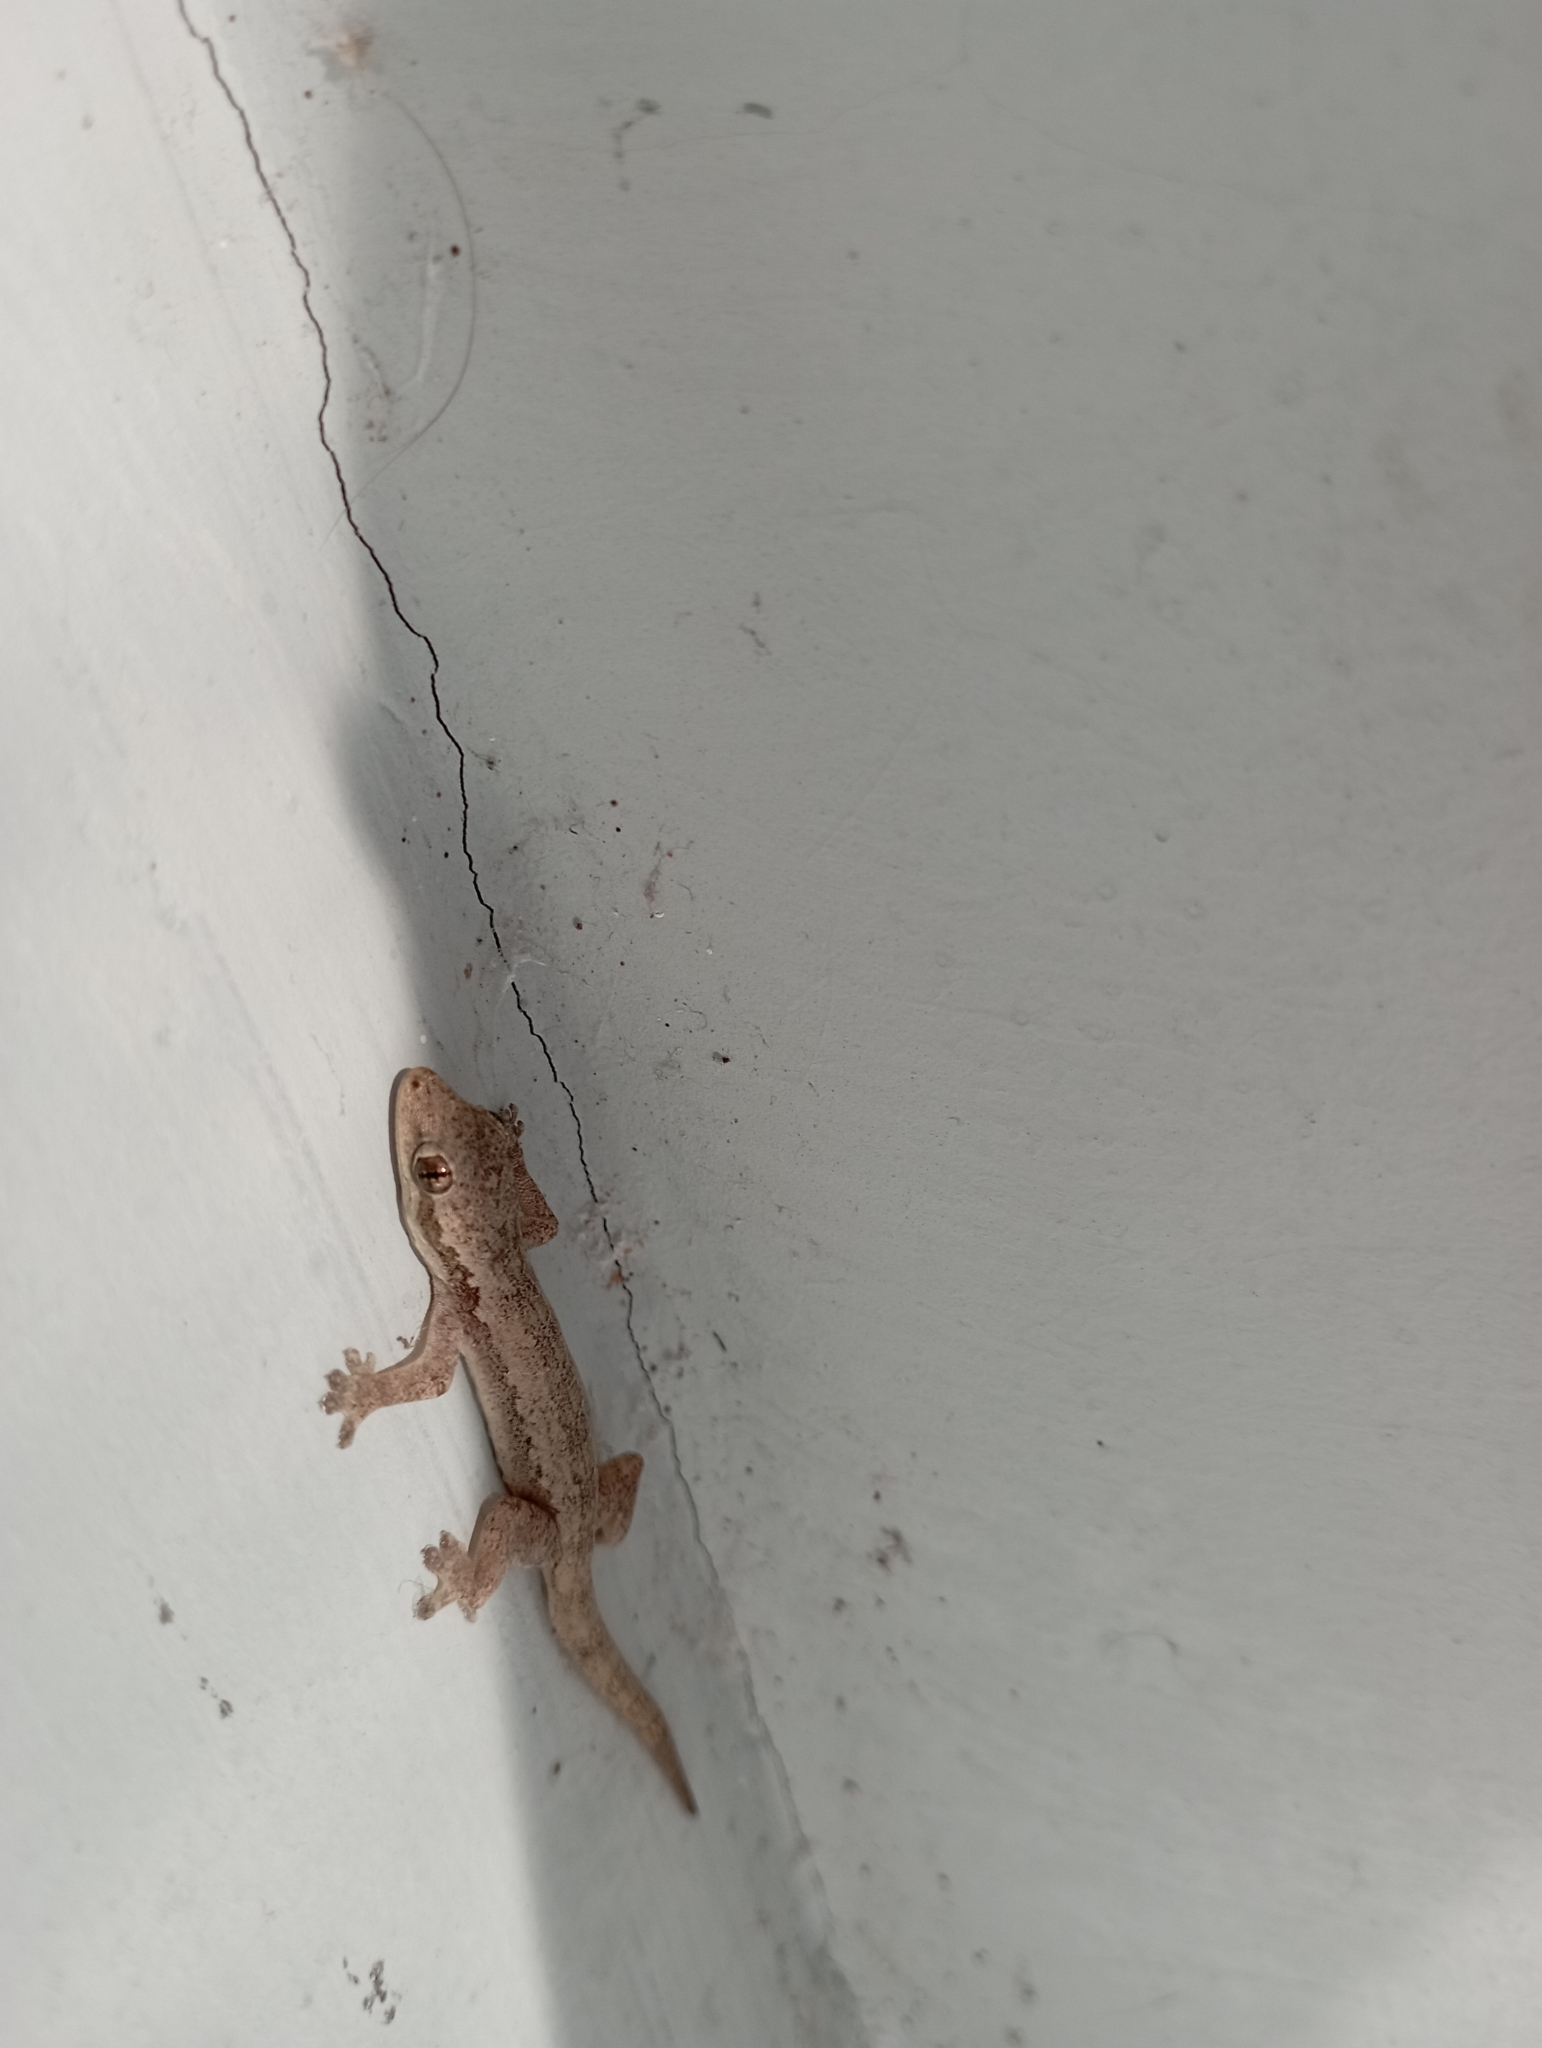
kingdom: Animalia
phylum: Chordata
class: Squamata
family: Gekkonidae
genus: Hemidactylus
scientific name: Hemidactylus platyurus
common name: Flat-tailed house gecko
